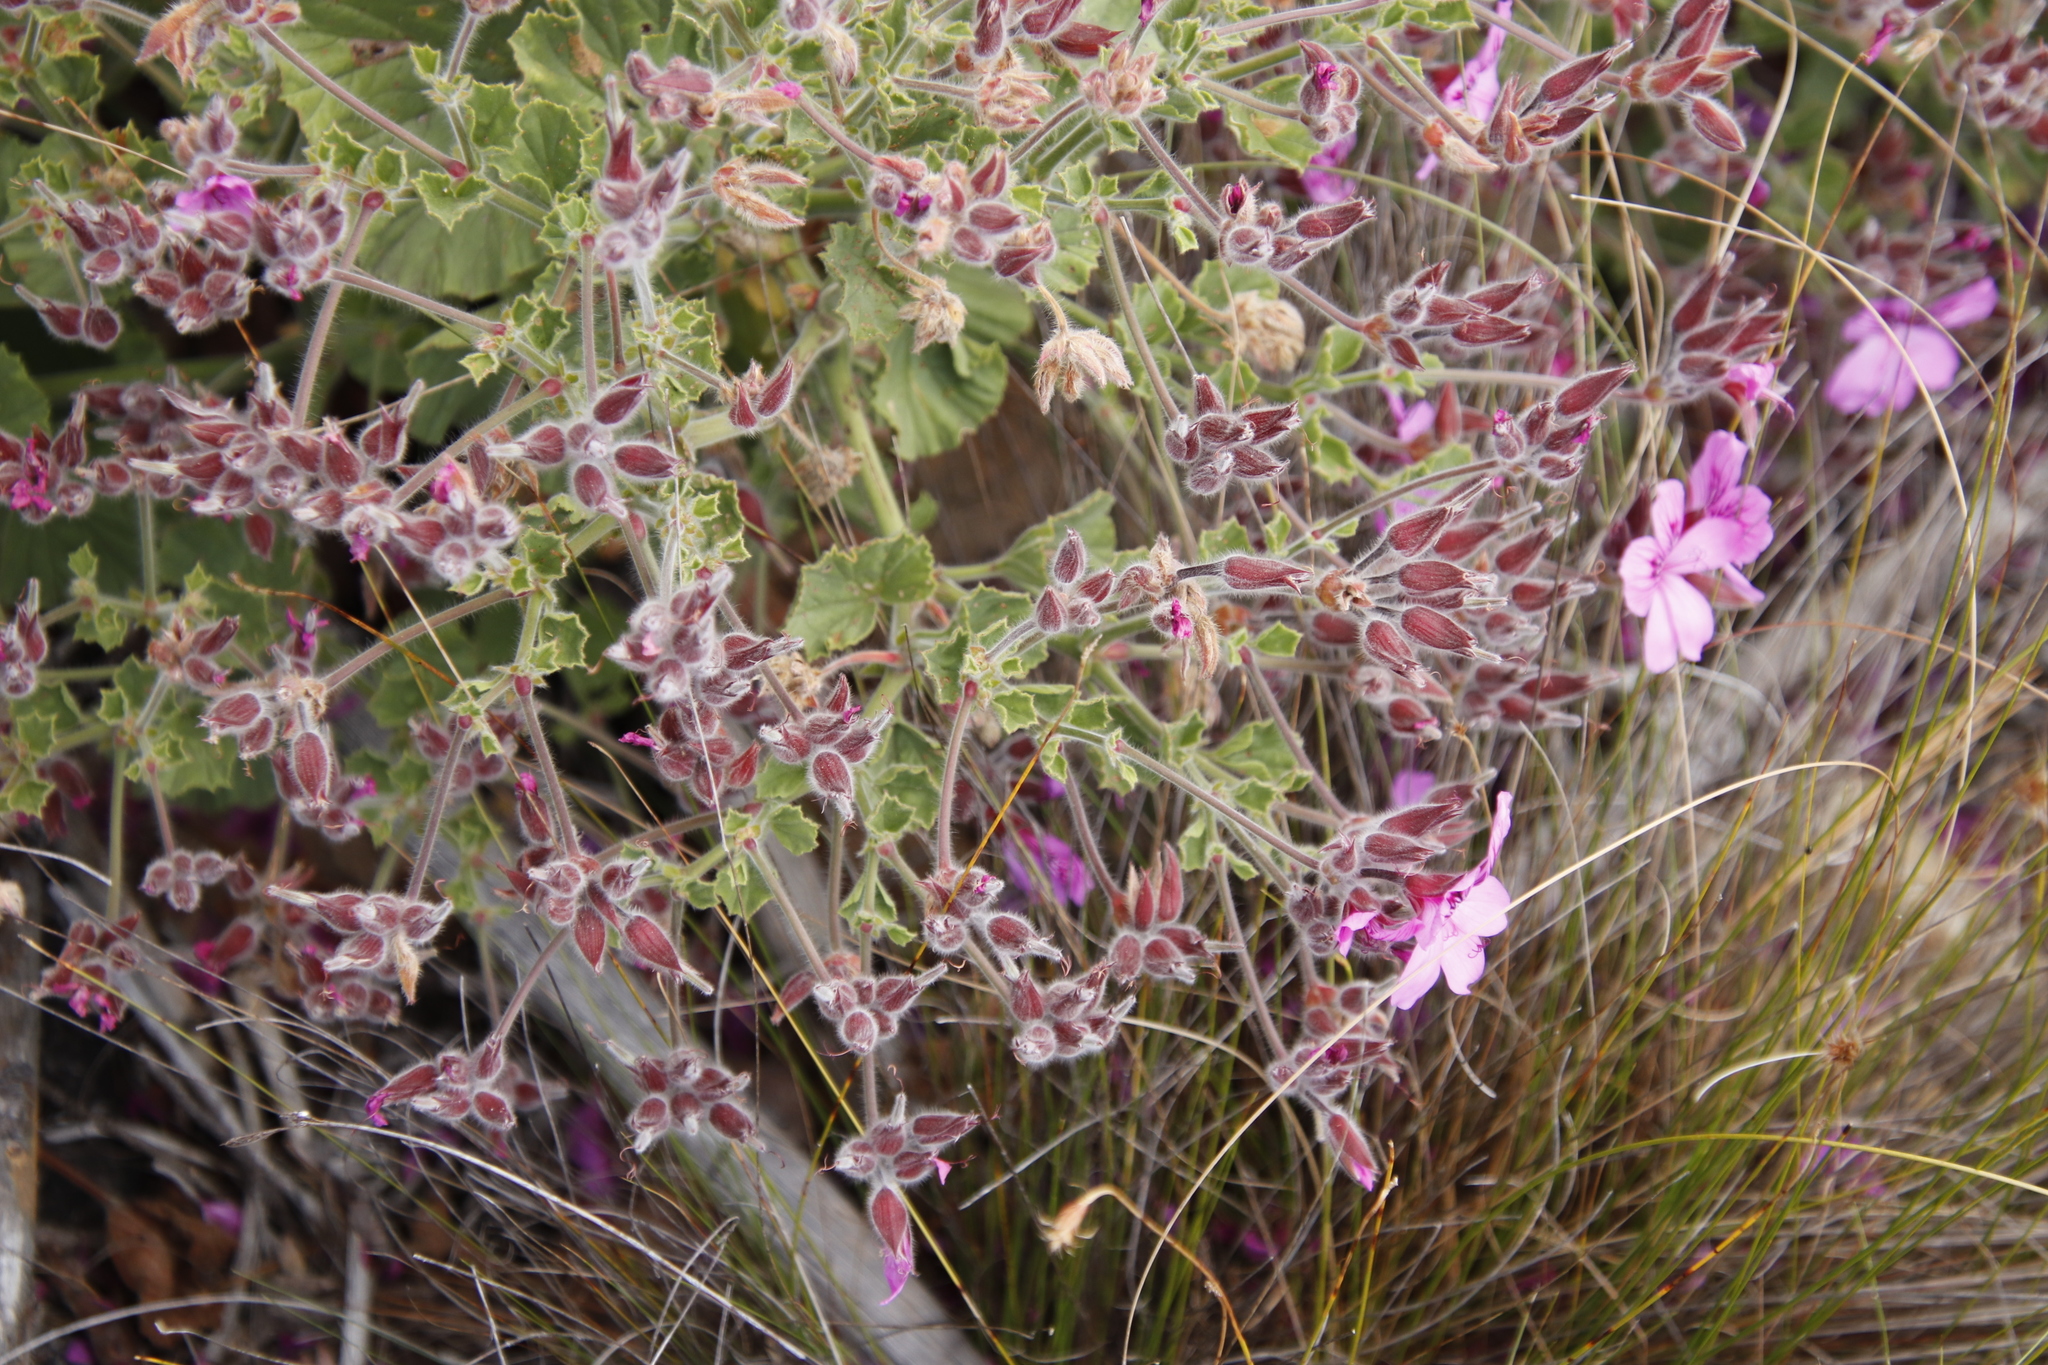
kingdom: Plantae
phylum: Tracheophyta
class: Magnoliopsida
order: Geraniales
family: Geraniaceae
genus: Pelargonium
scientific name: Pelargonium cucullatum
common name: Tree pelargonium
